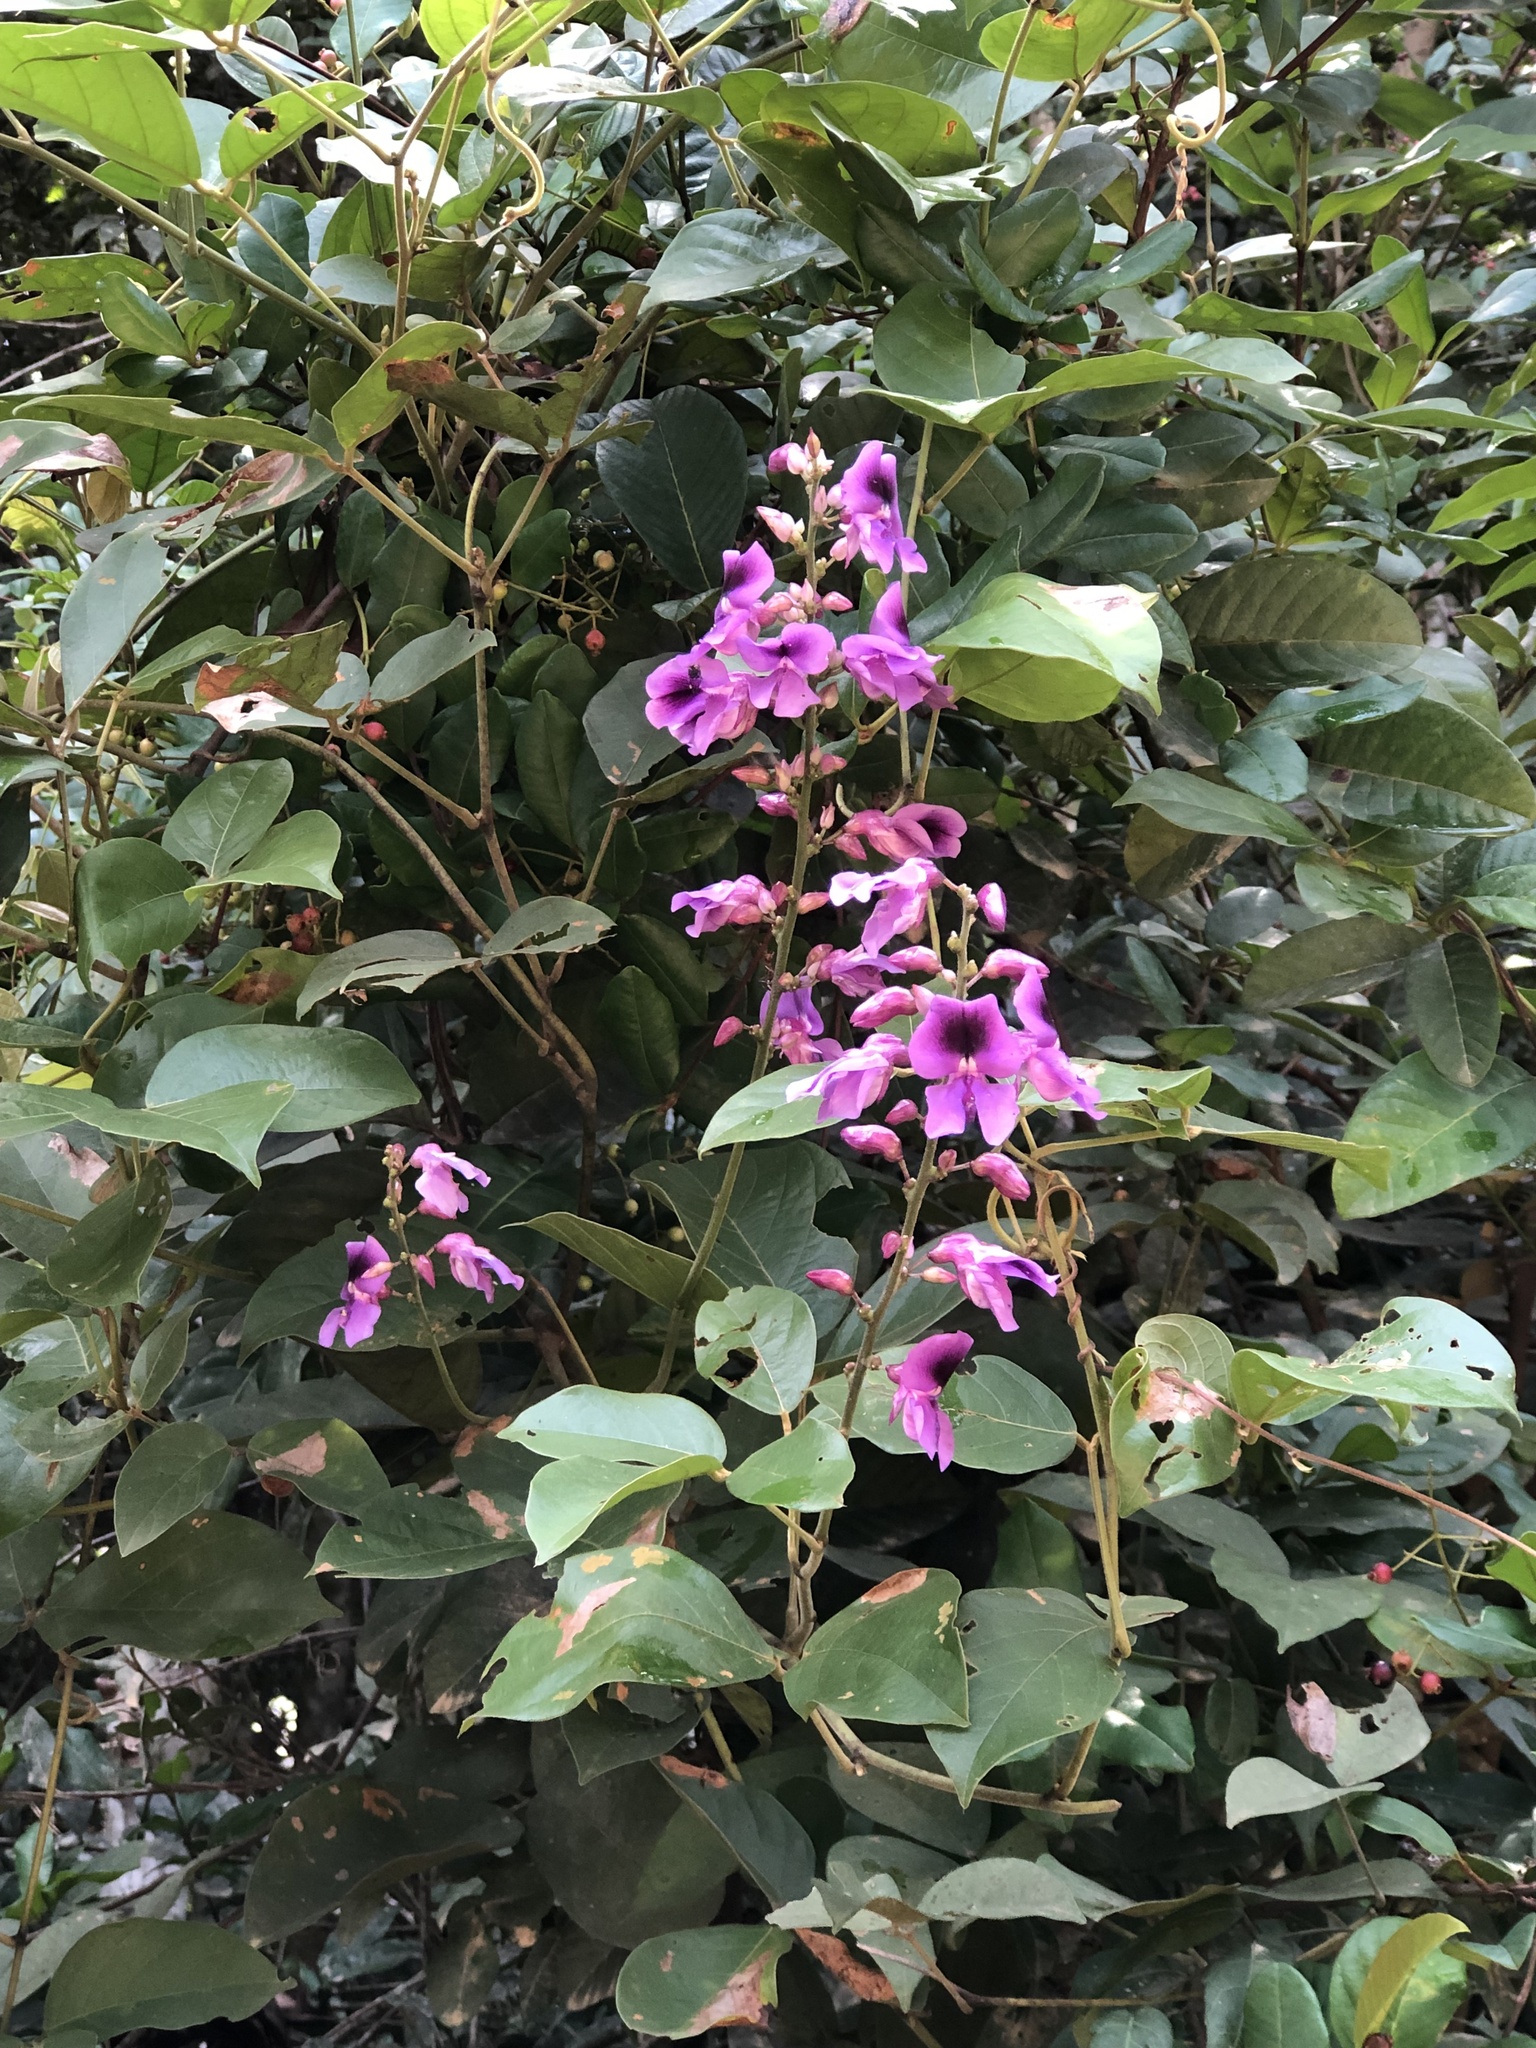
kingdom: Plantae
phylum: Tracheophyta
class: Magnoliopsida
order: Fabales
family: Fabaceae
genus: Dioclea
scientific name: Dioclea virgata
